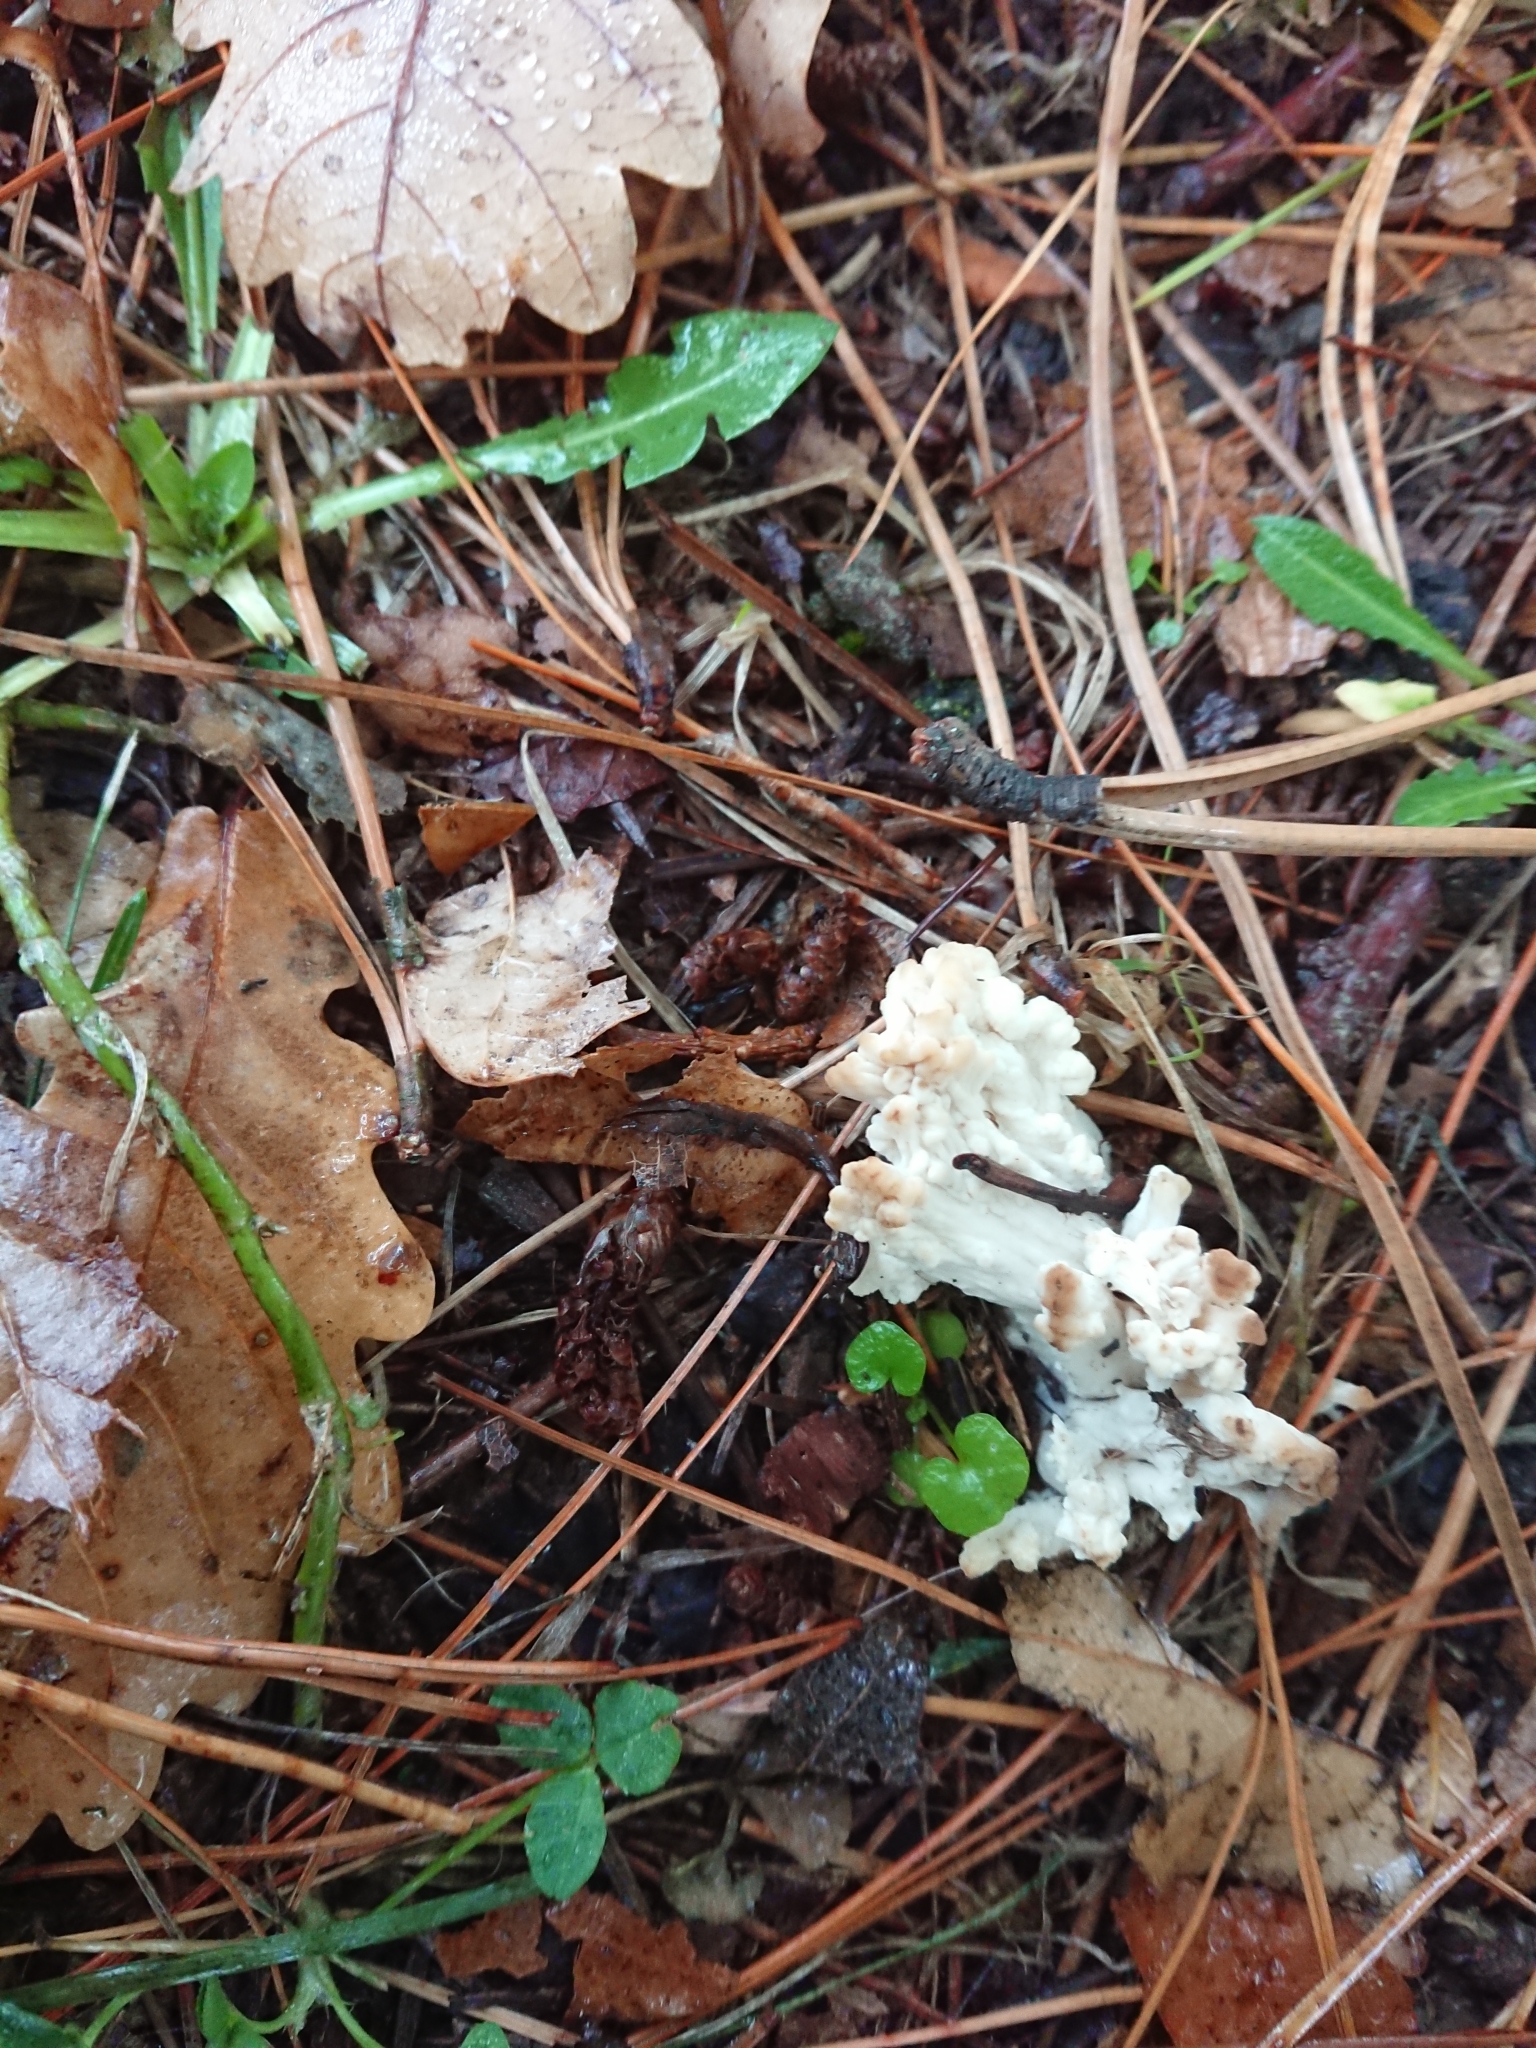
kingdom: Fungi
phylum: Basidiomycota
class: Agaricomycetes
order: Cantharellales
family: Hydnaceae
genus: Clavulina
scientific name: Clavulina rugosa
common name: Wrinkled club
